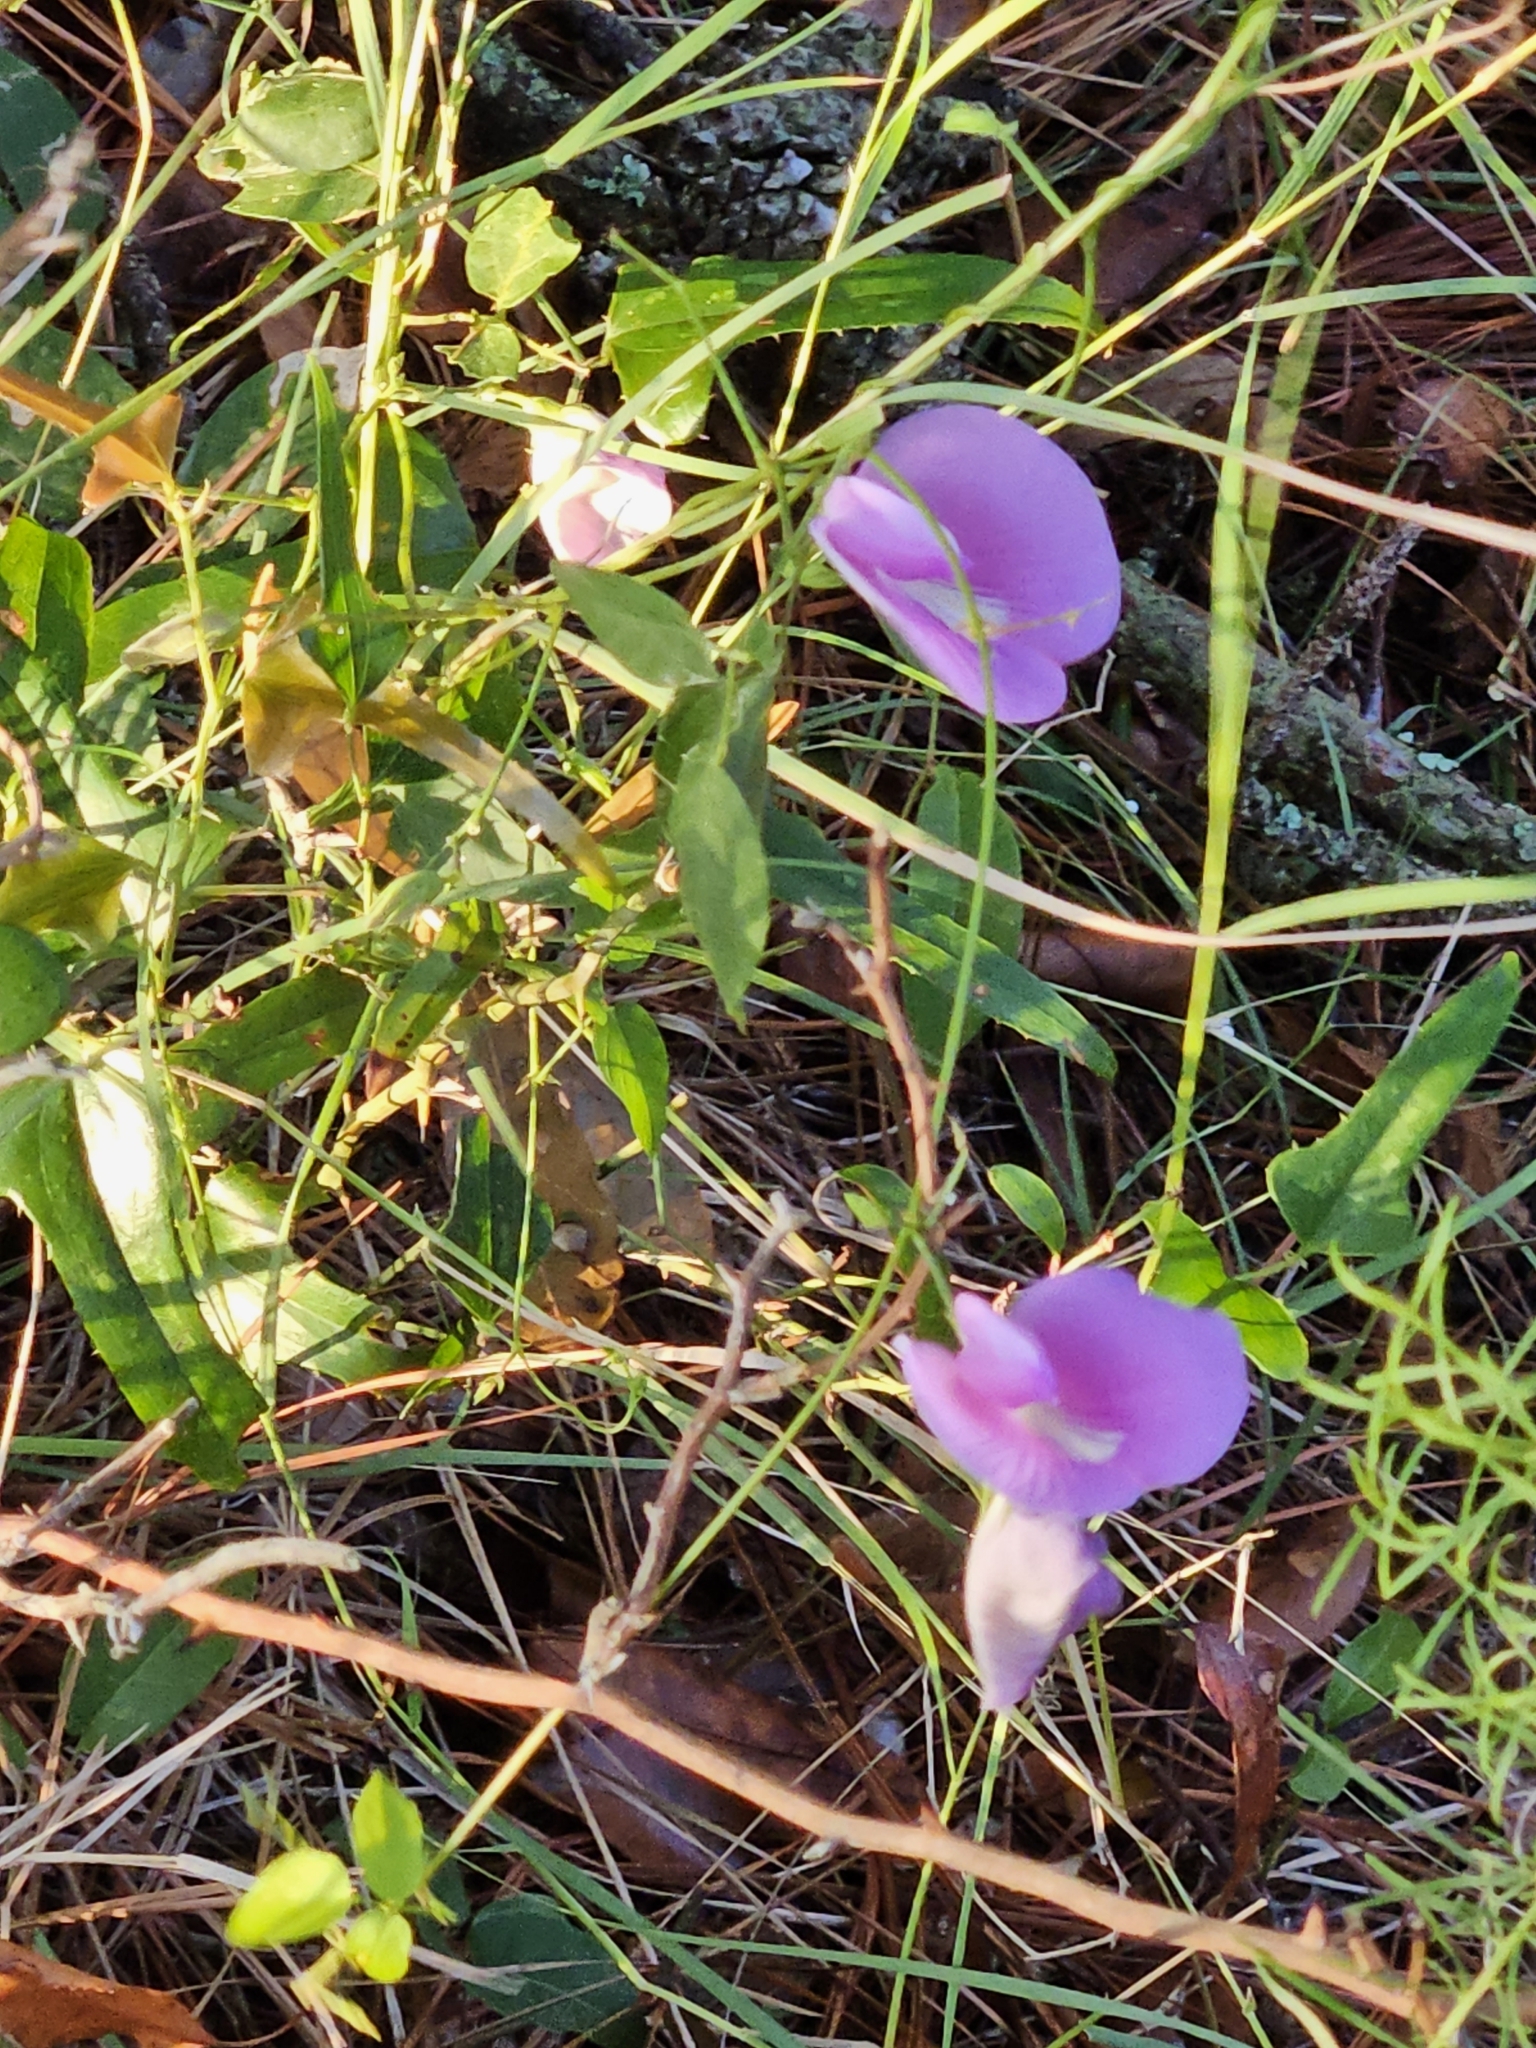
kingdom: Plantae
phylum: Tracheophyta
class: Magnoliopsida
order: Fabales
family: Fabaceae
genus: Centrosema
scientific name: Centrosema virginianum
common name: Butterfly-pea
